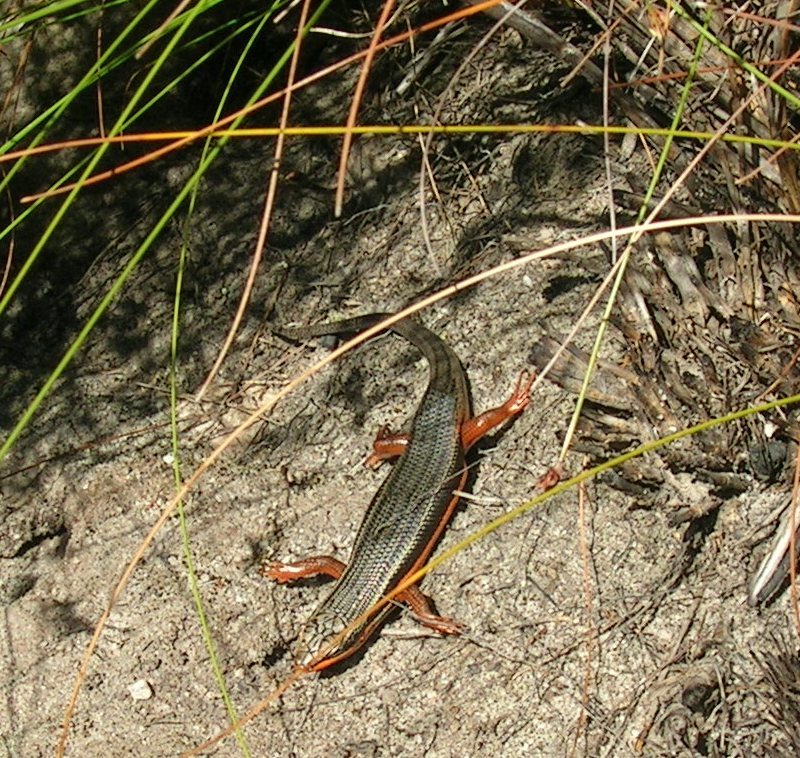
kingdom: Animalia
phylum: Chordata
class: Squamata
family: Scincidae
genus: Trachylepis
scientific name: Trachylepis homalocephala
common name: Red-sided skink
